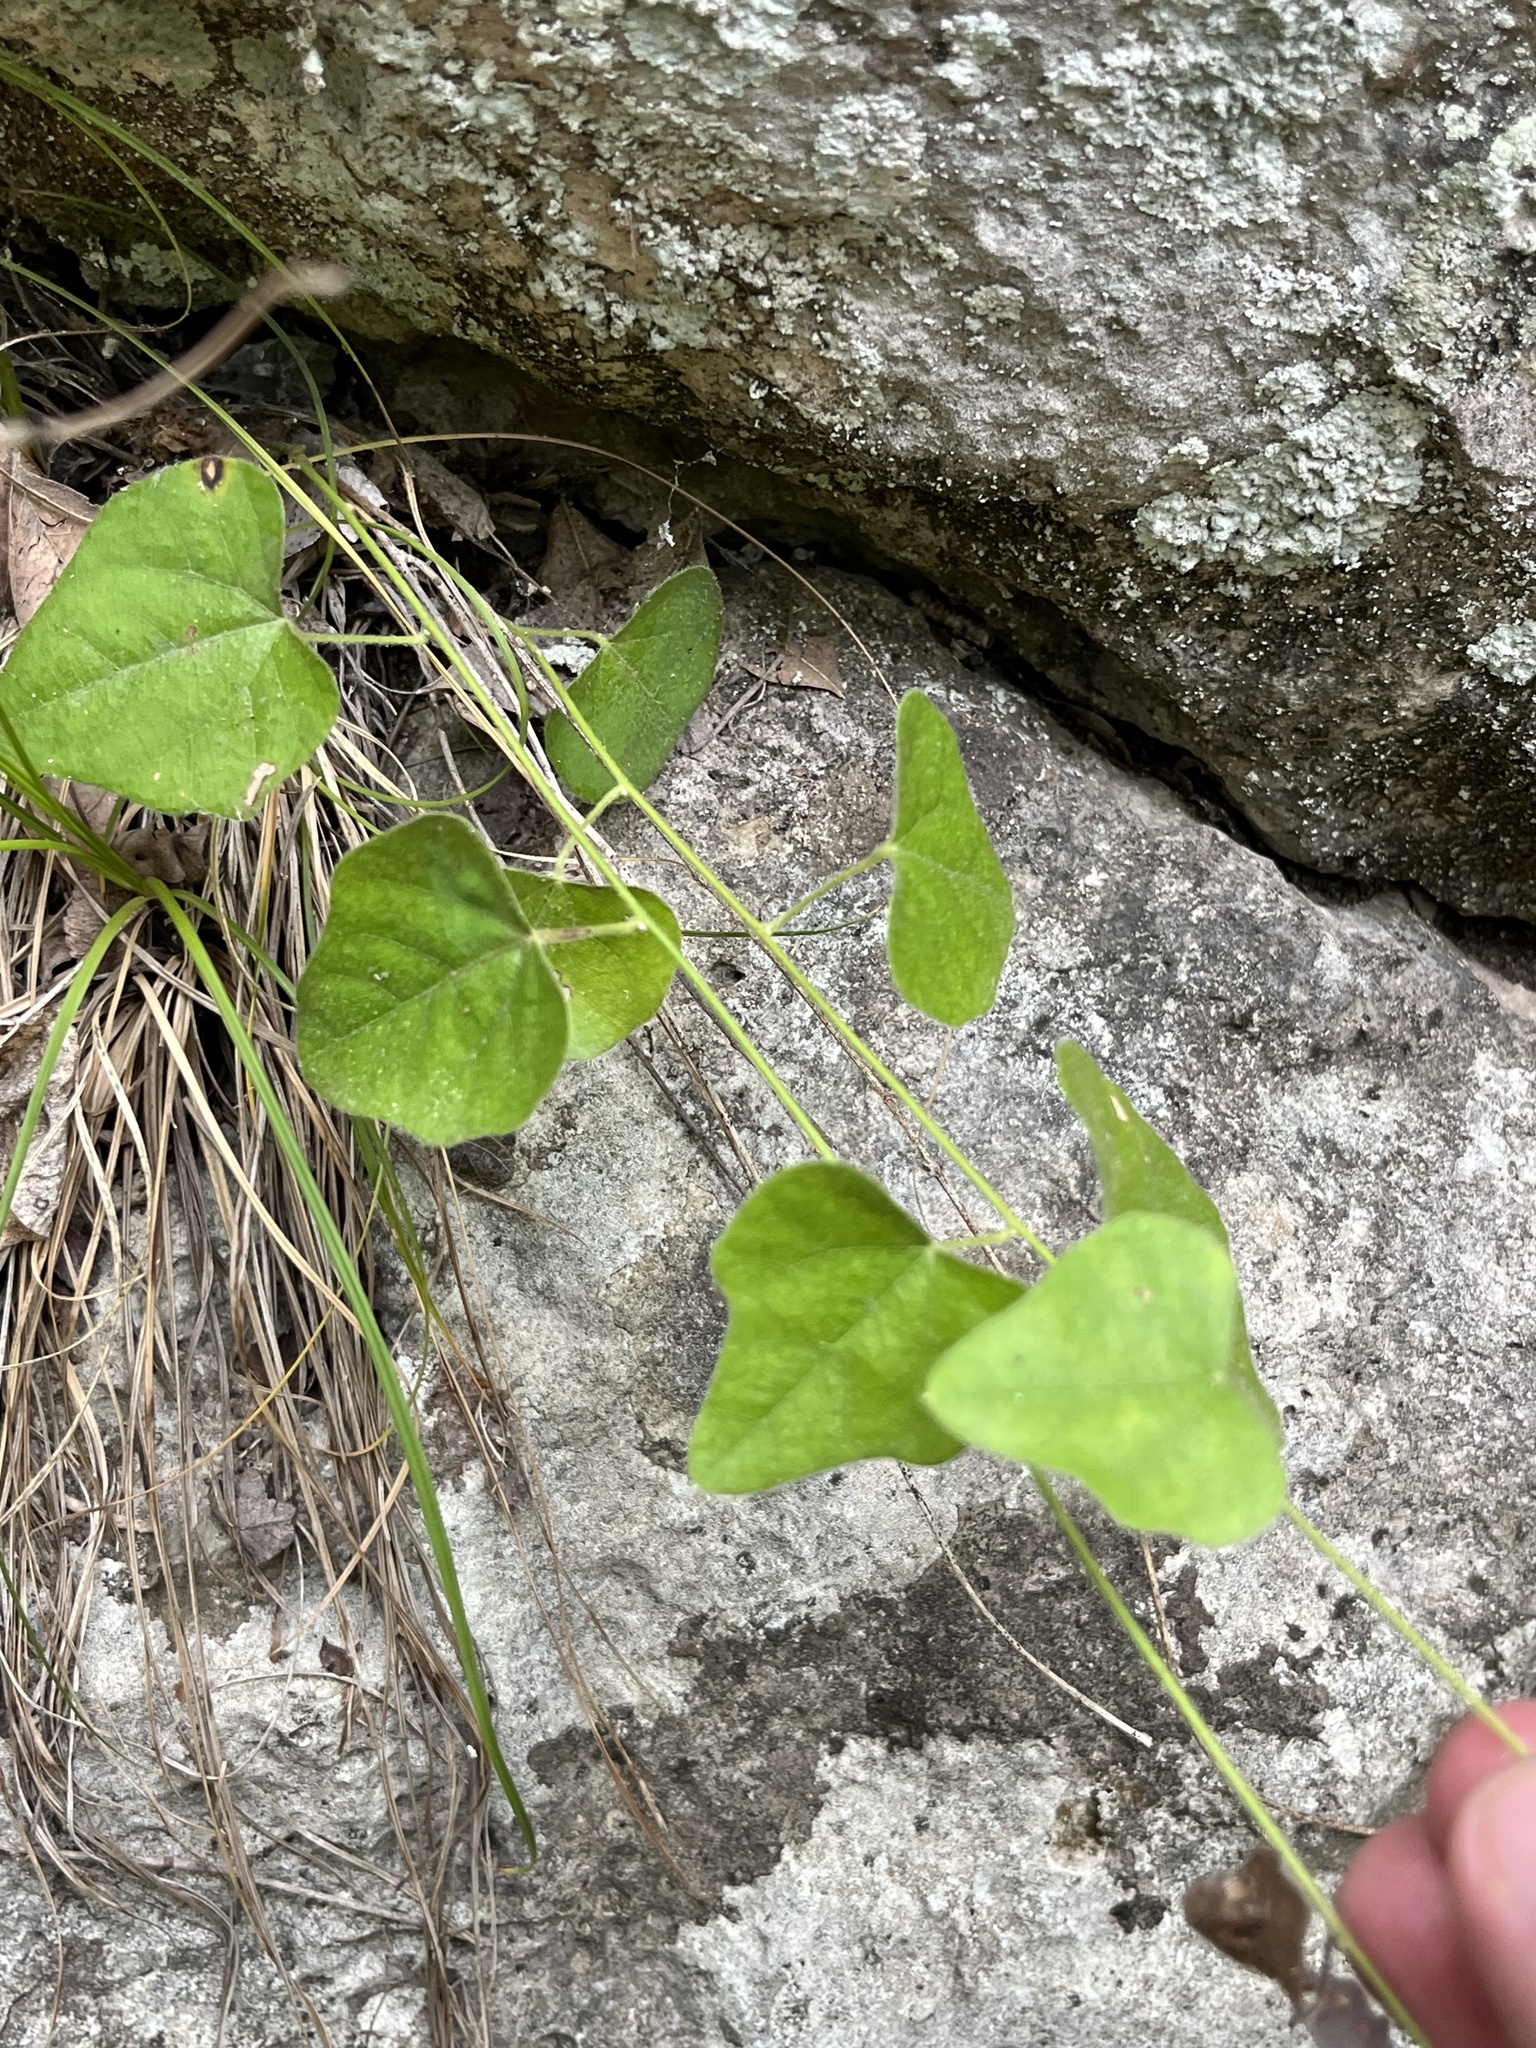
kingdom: Plantae
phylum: Tracheophyta
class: Magnoliopsida
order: Ranunculales
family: Menispermaceae
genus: Cocculus
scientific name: Cocculus carolinus
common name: Carolina moonseed
